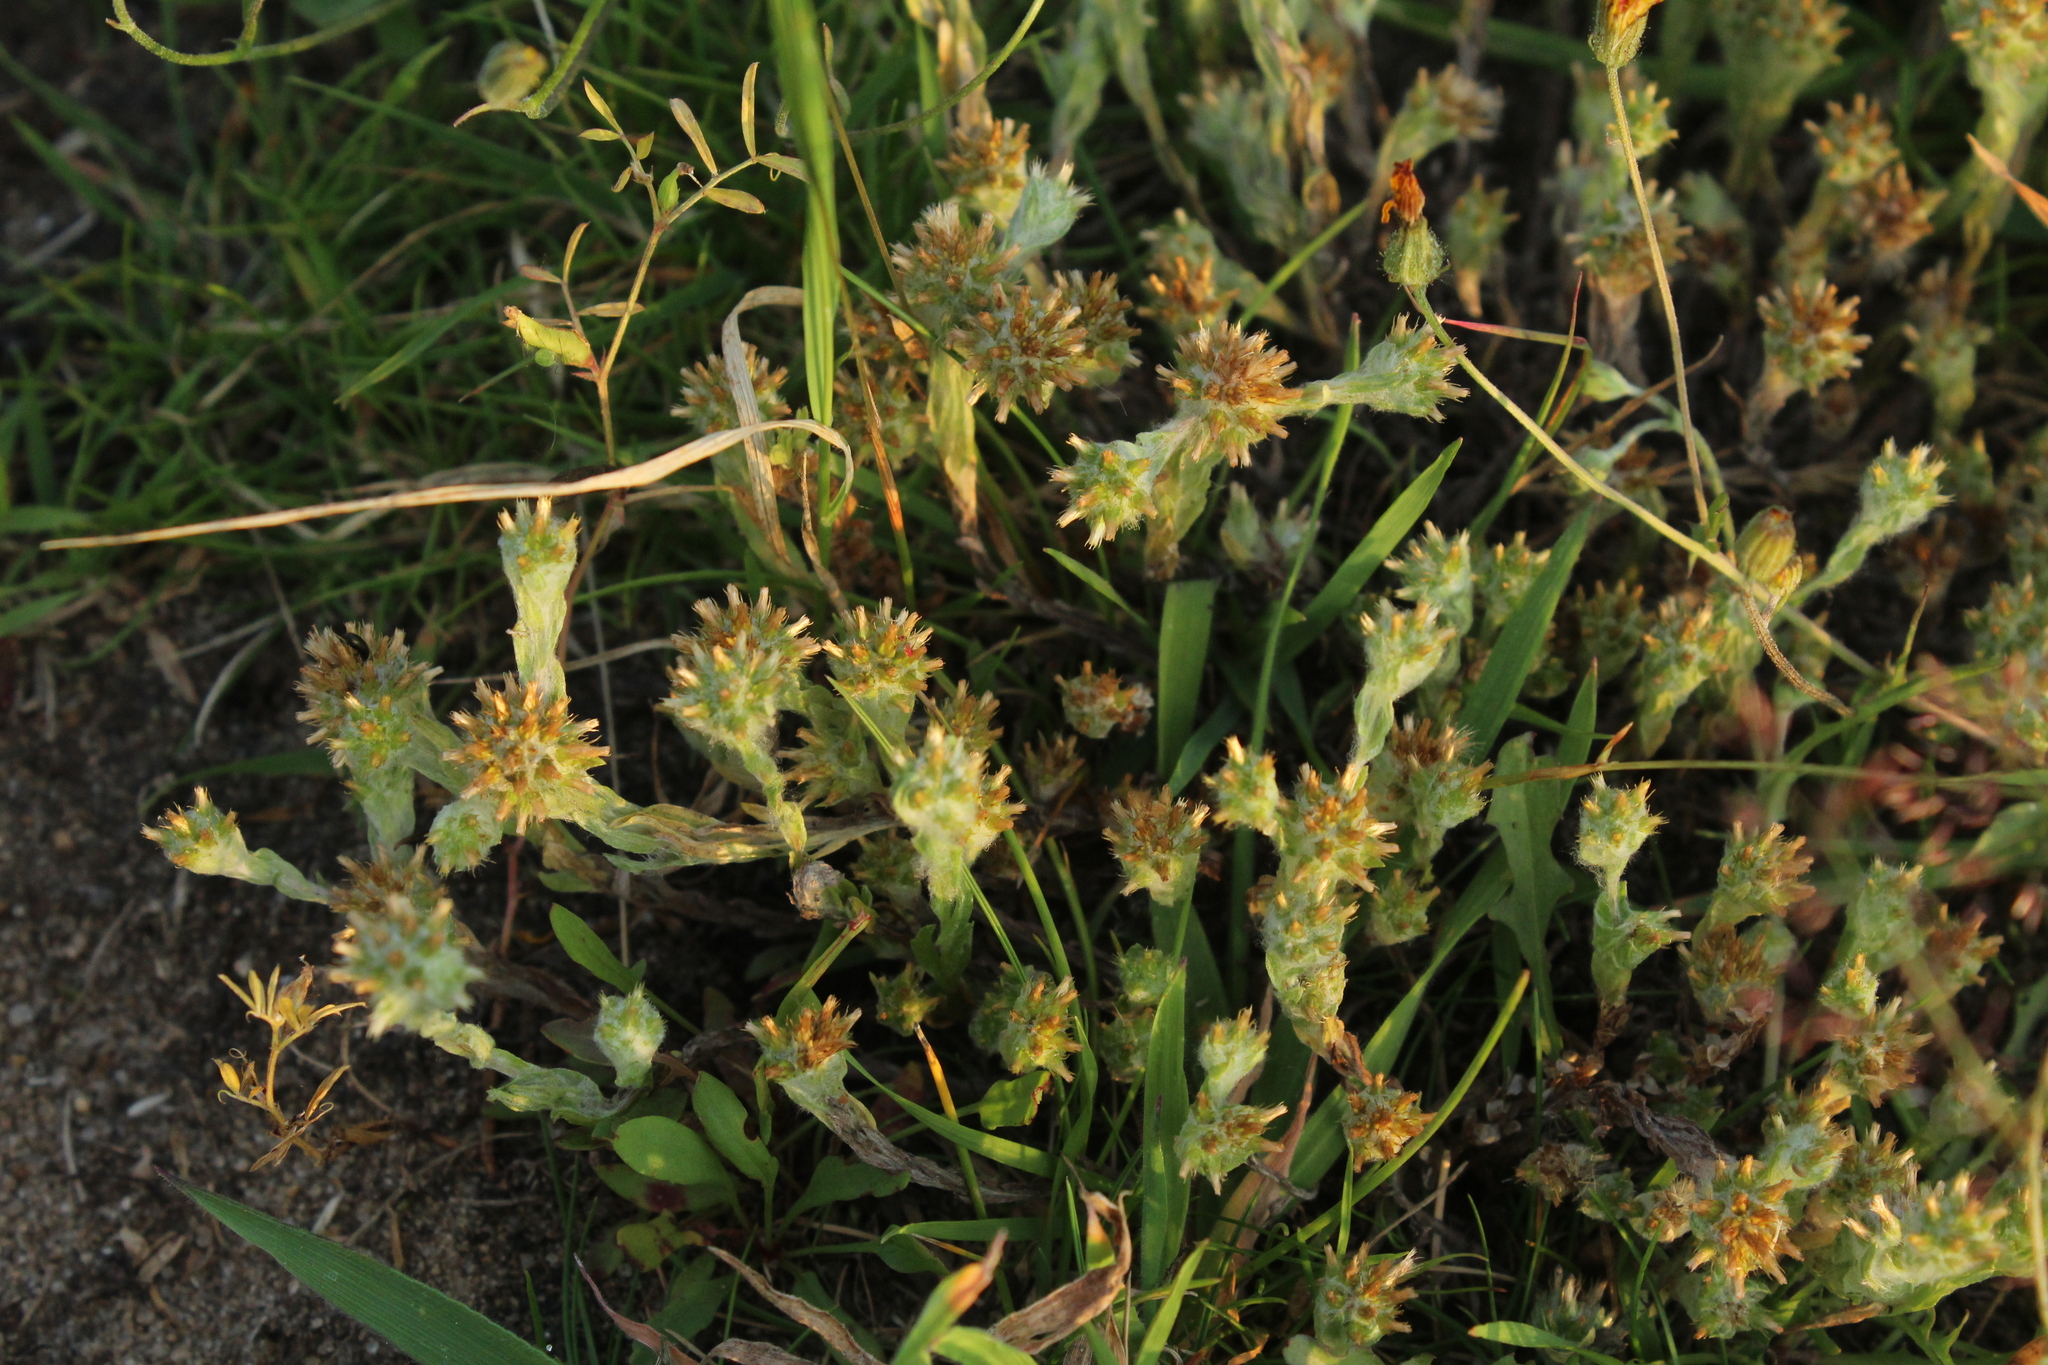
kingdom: Plantae
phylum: Tracheophyta
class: Magnoliopsida
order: Asterales
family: Asteraceae
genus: Filago
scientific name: Filago germanica
